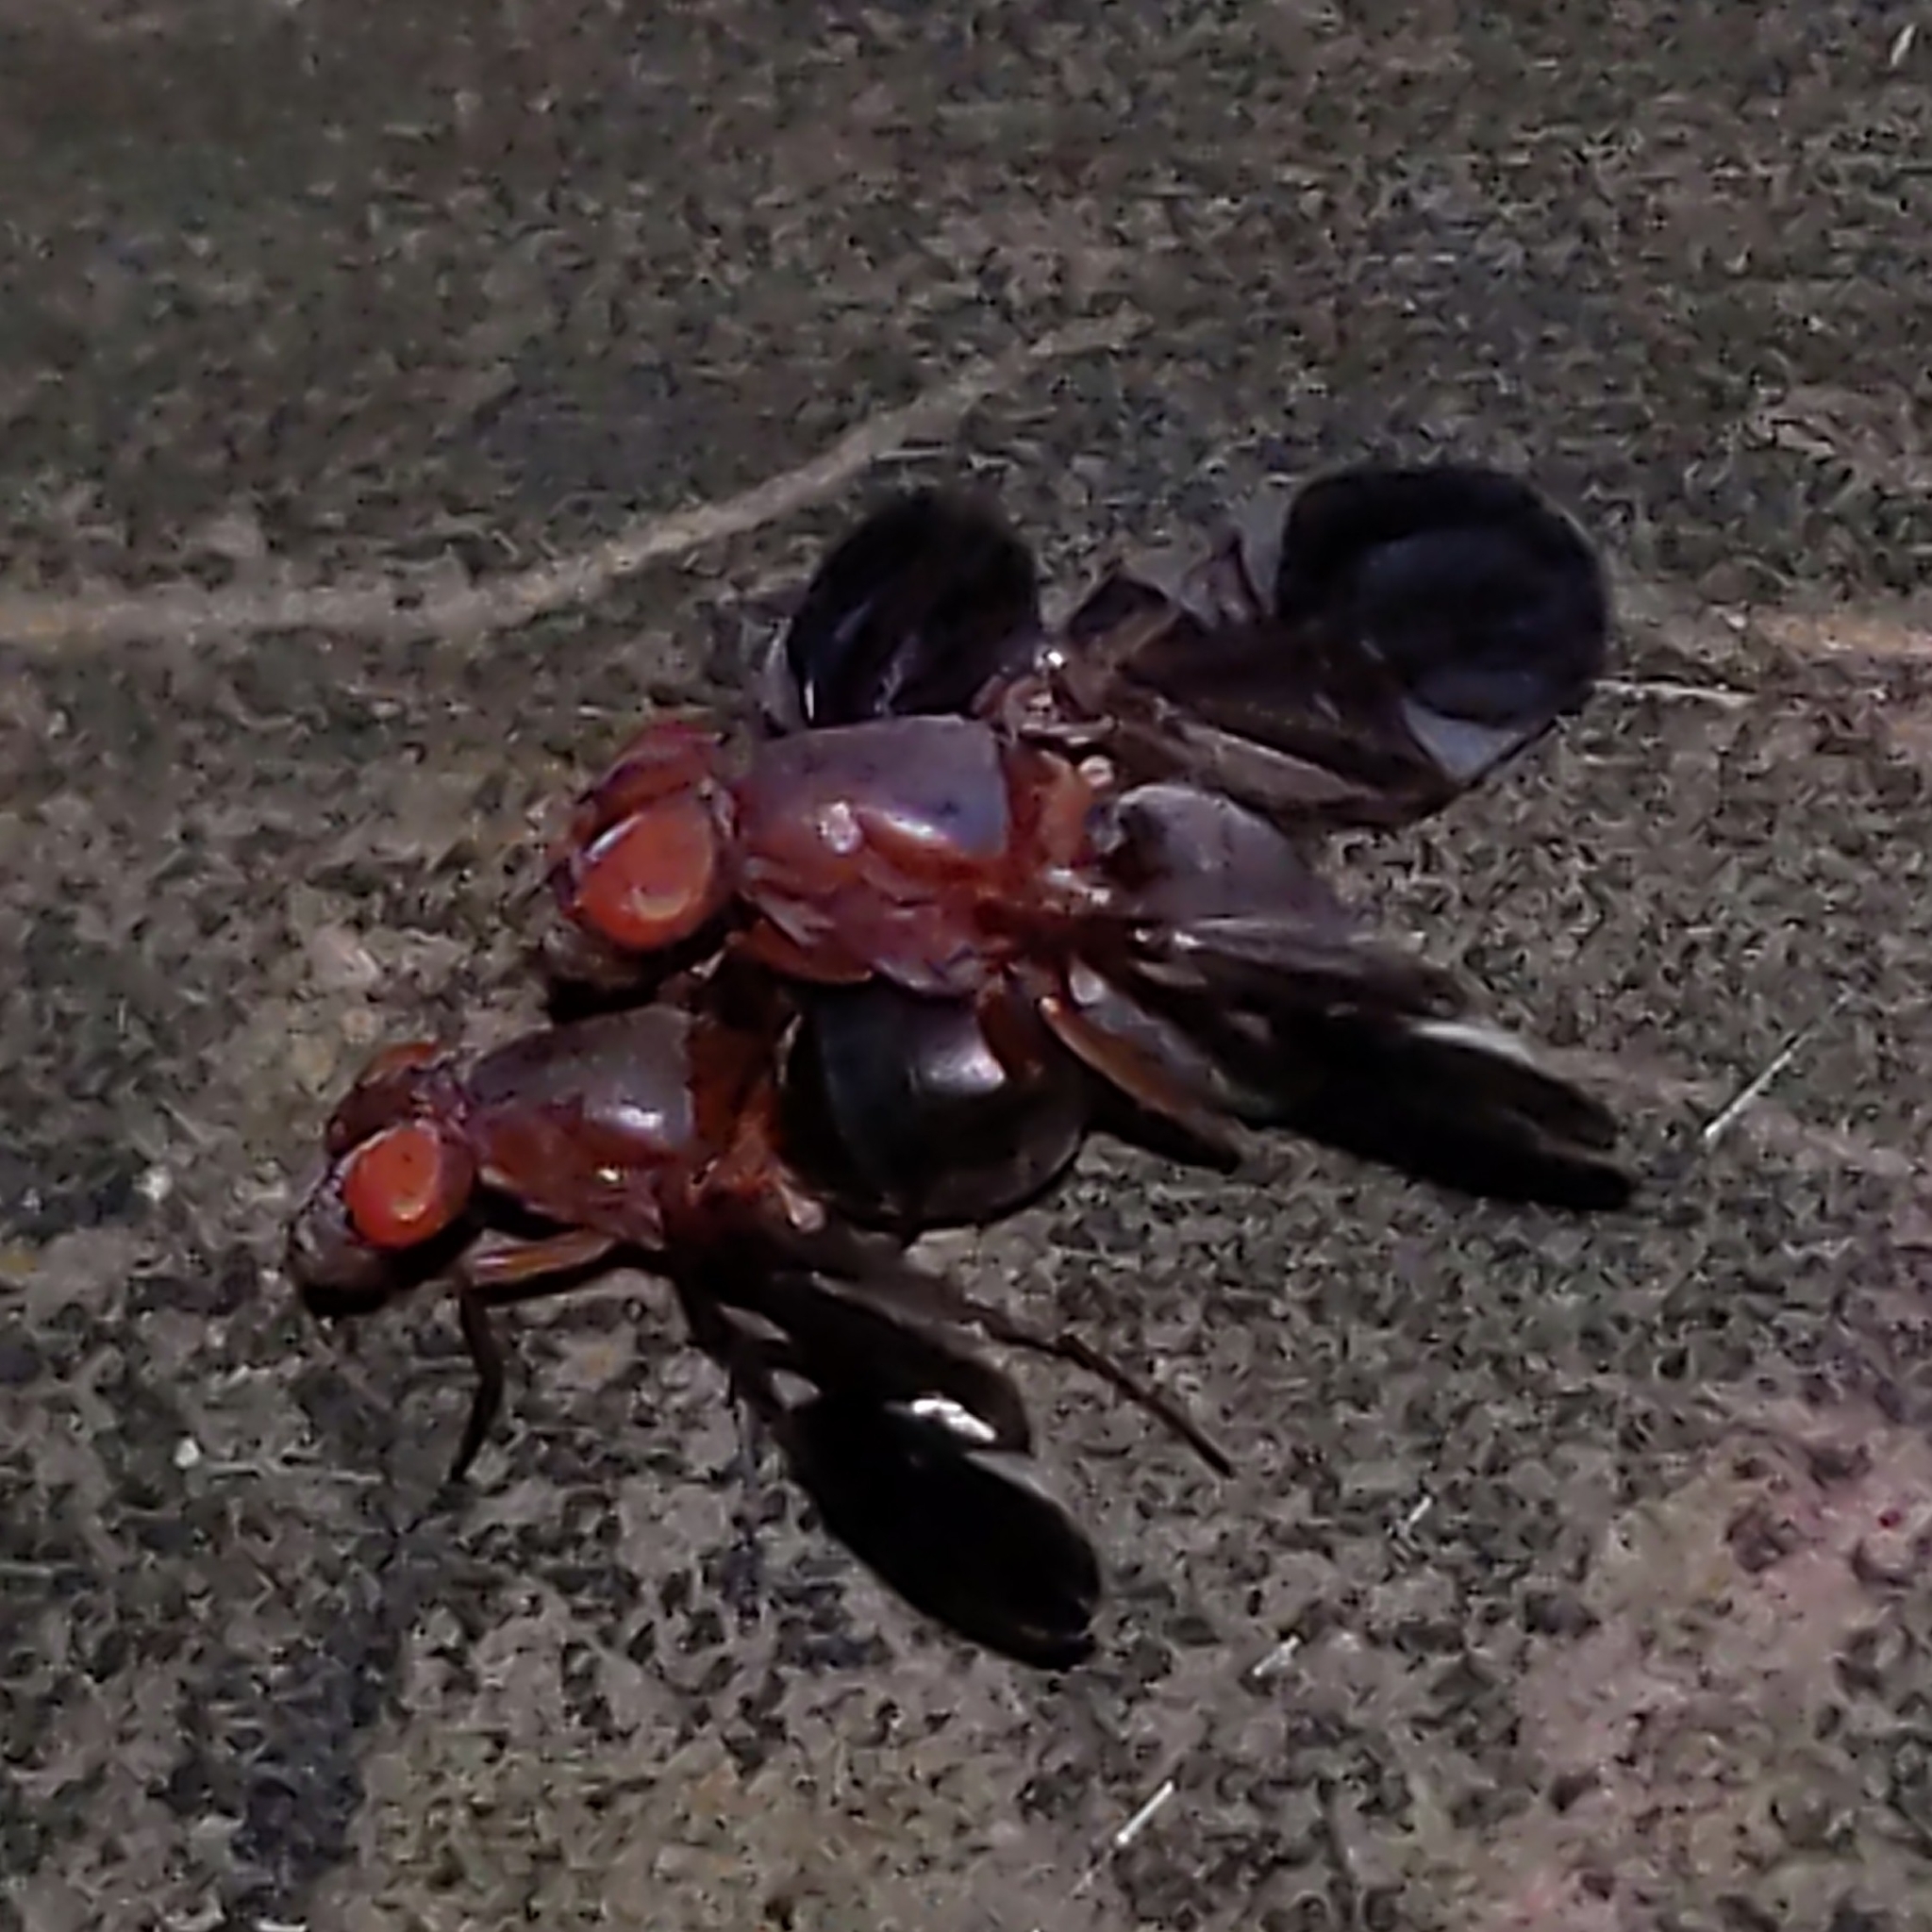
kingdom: Animalia
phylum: Arthropoda
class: Insecta
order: Diptera
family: Ulidiidae
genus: Delphinia
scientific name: Delphinia picta
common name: Common picture-winged fly
